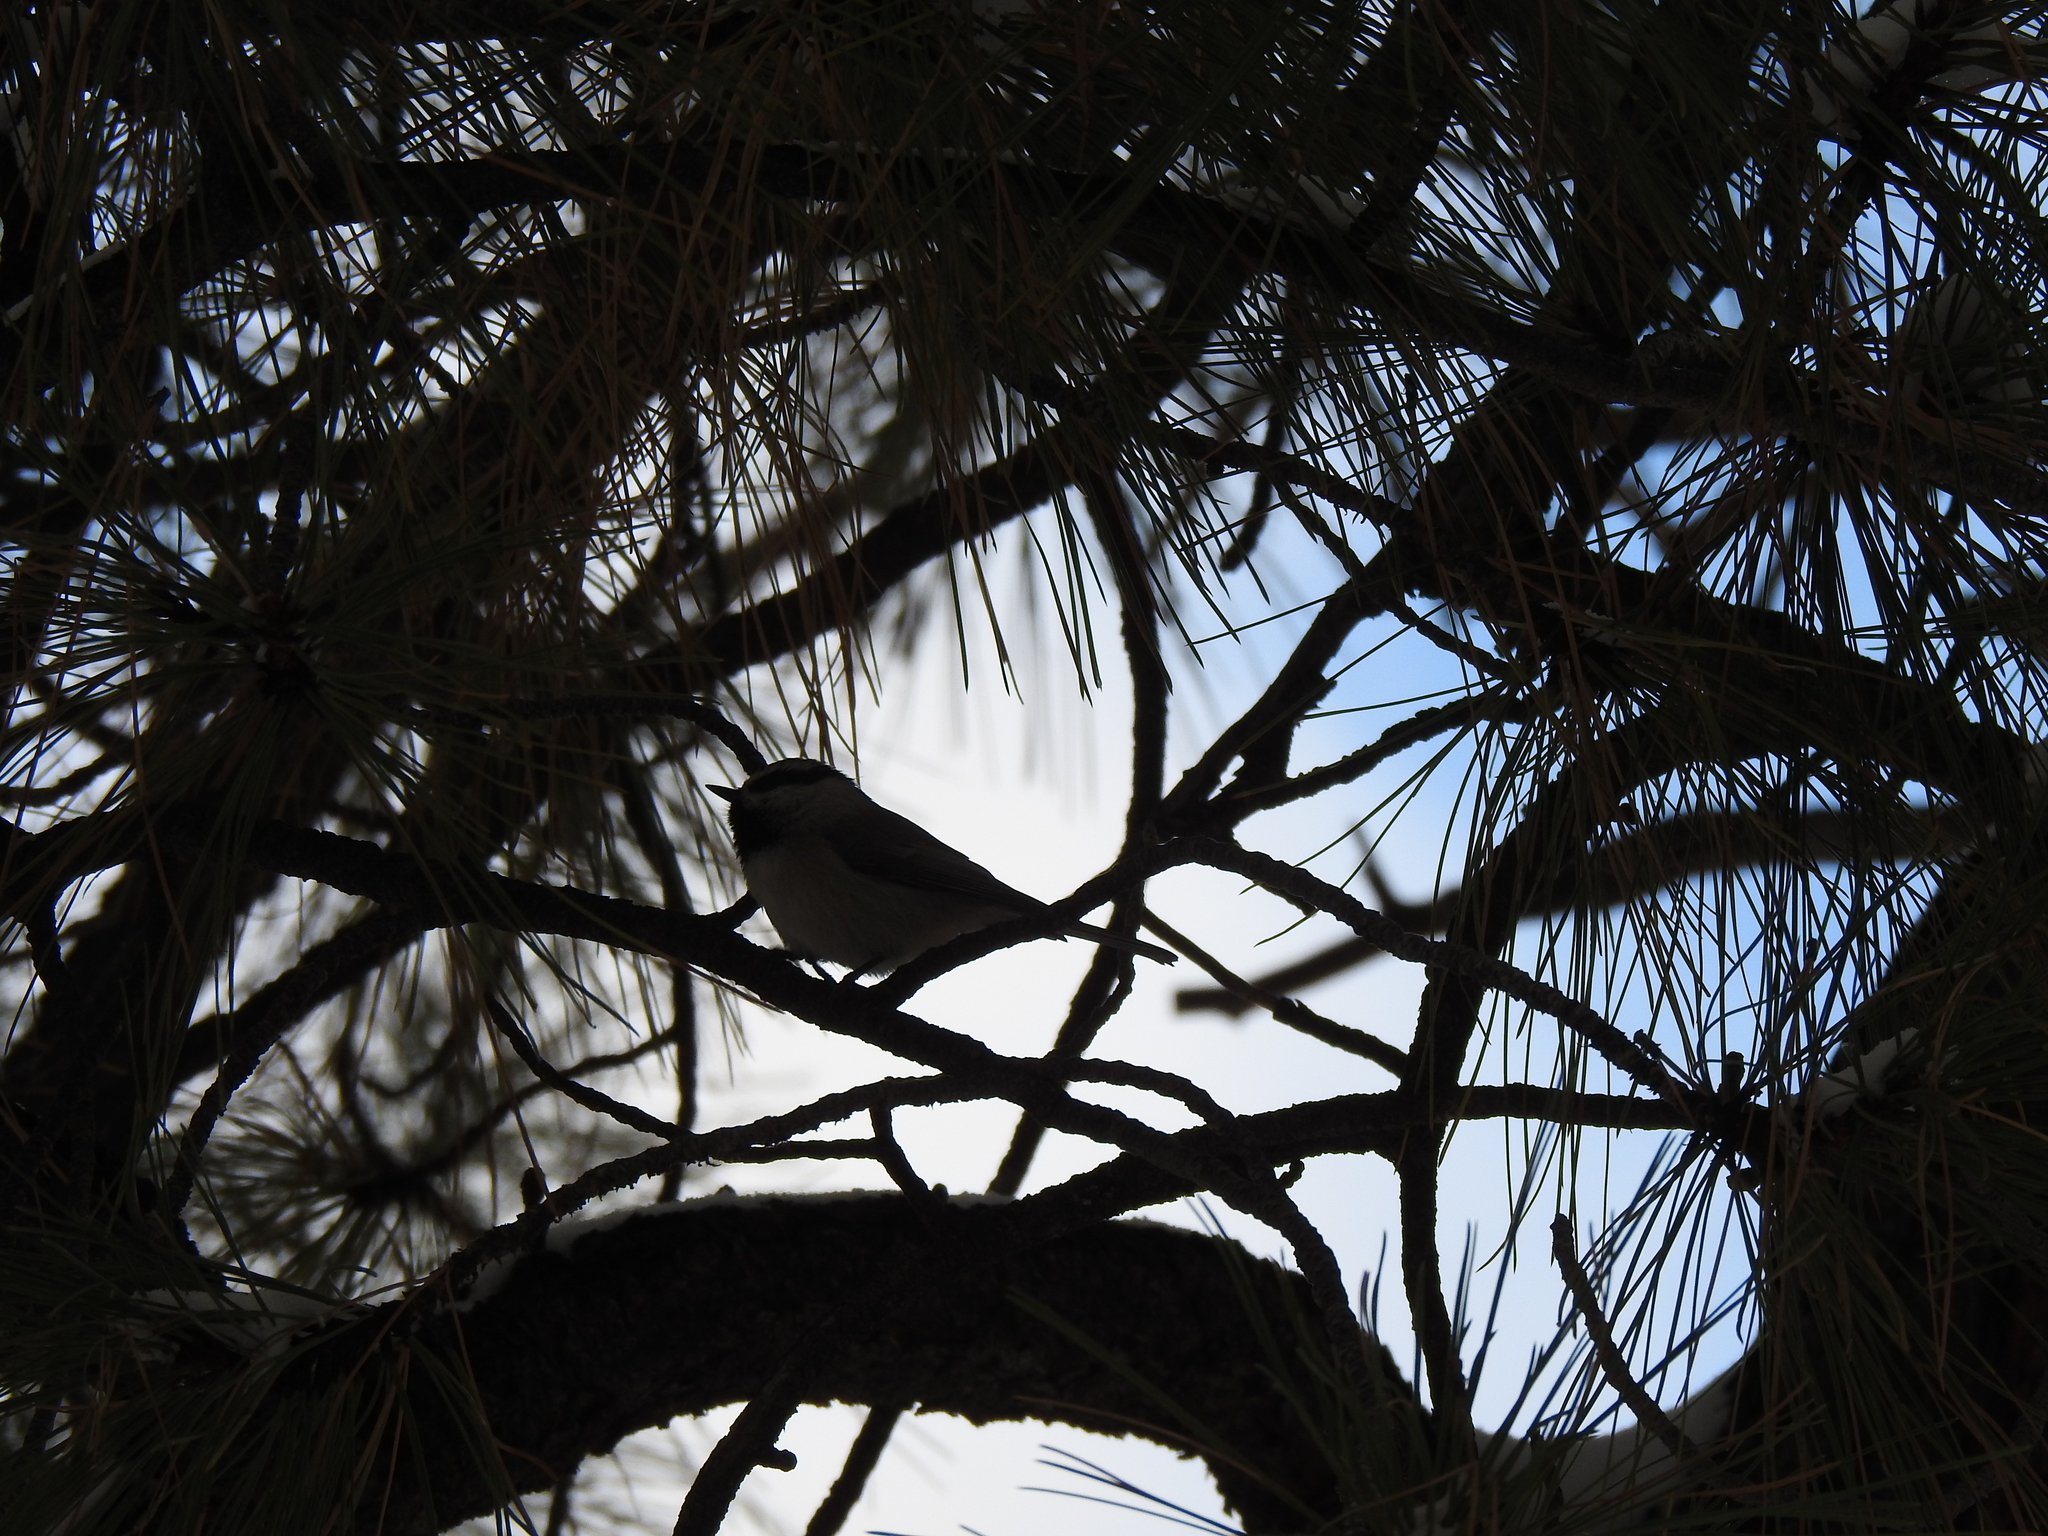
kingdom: Animalia
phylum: Chordata
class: Aves
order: Passeriformes
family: Paridae
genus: Poecile
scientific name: Poecile gambeli
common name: Mountain chickadee
